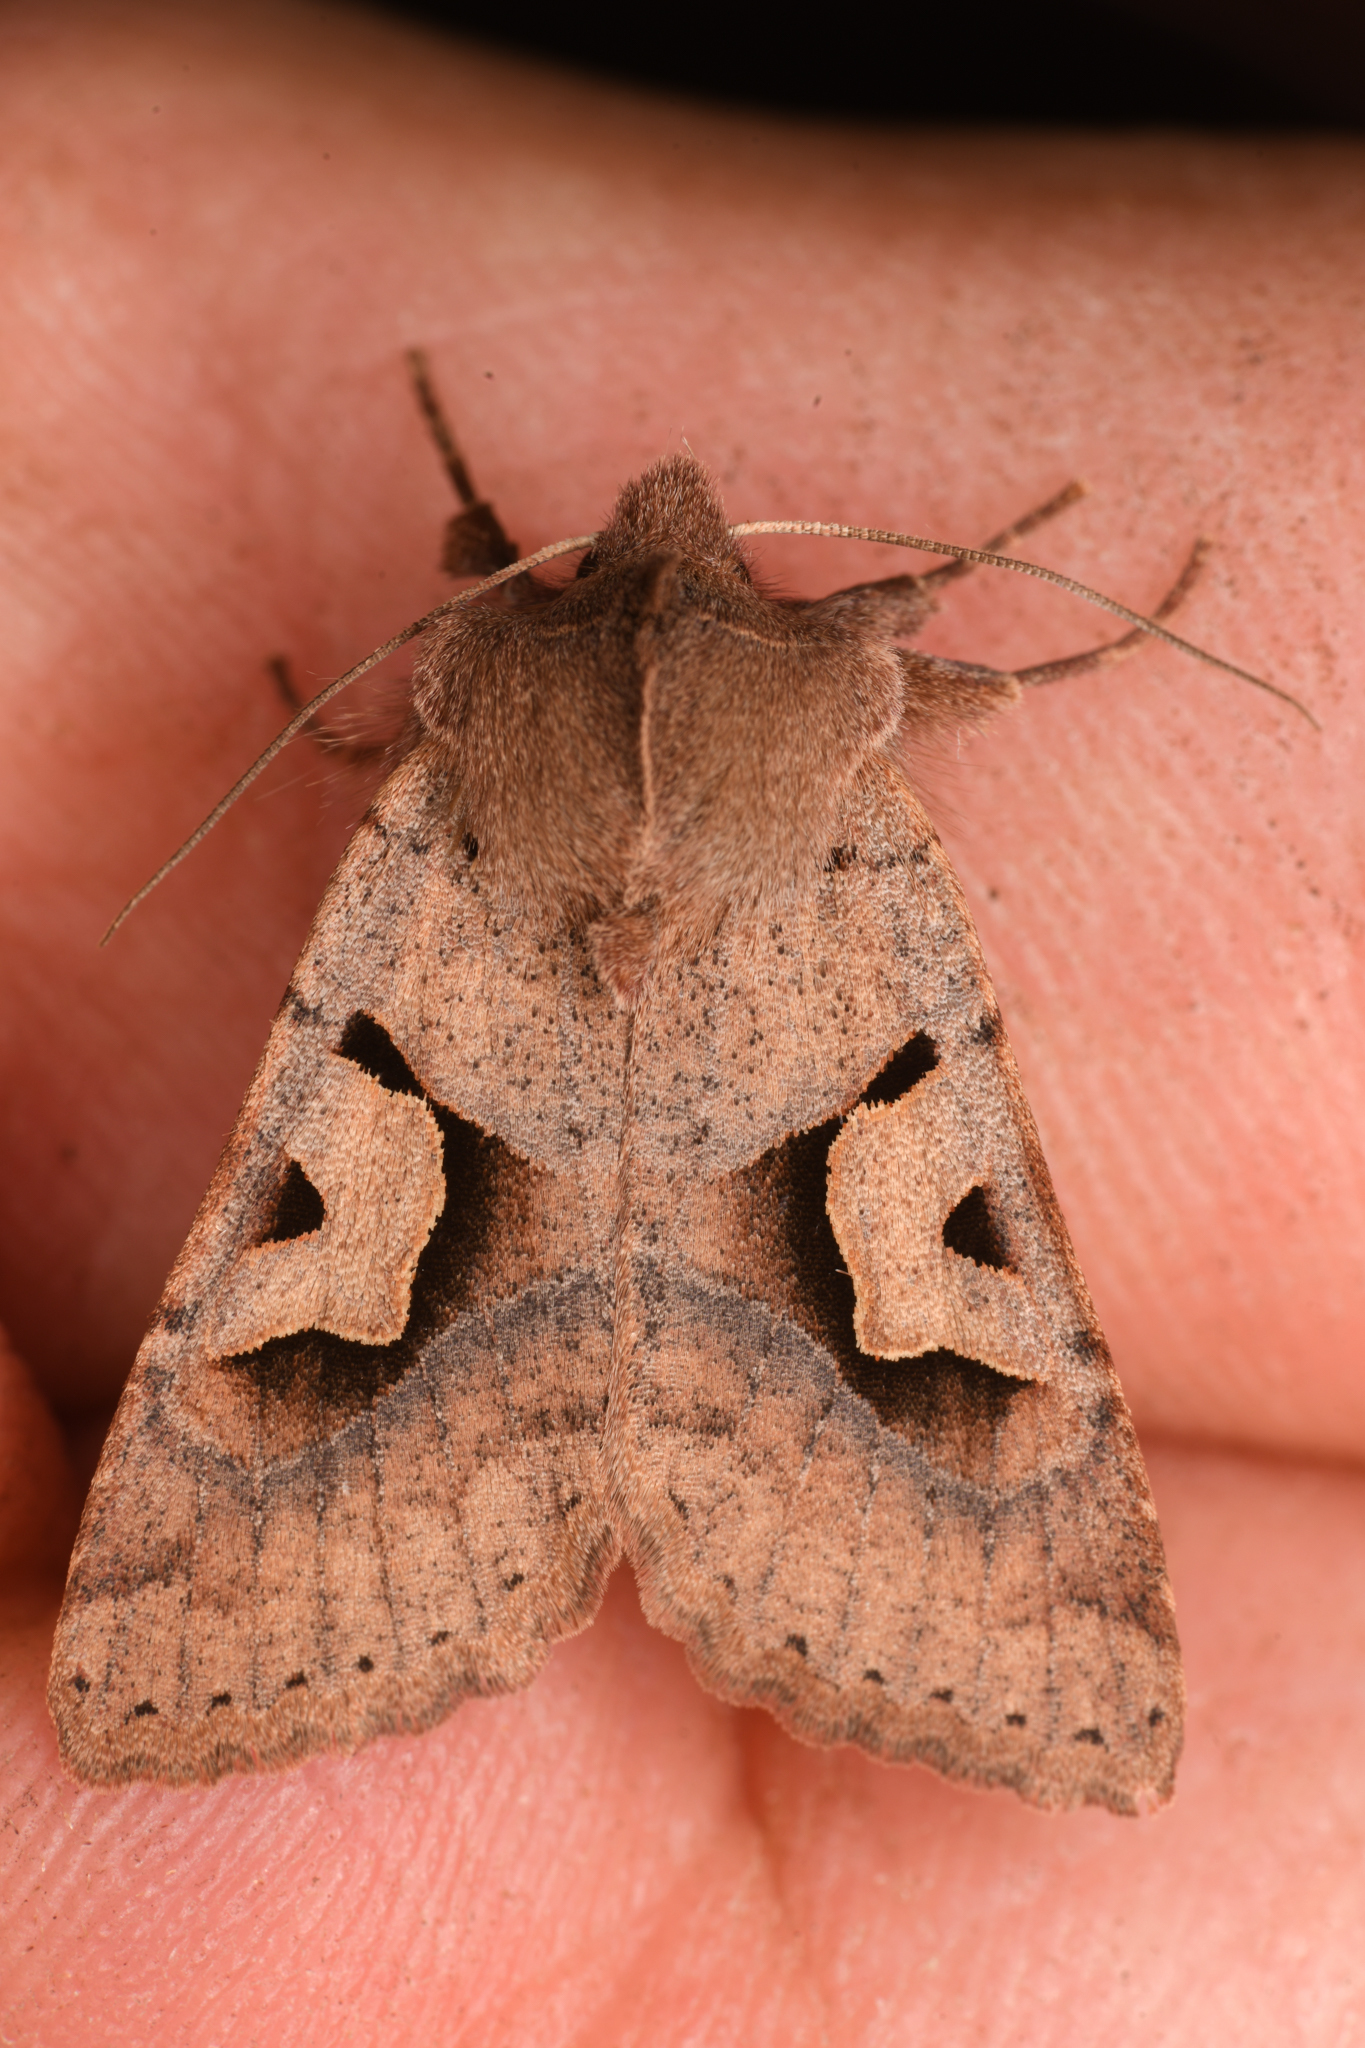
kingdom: Animalia
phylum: Arthropoda
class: Insecta
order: Lepidoptera
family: Noctuidae
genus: Acerra
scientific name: Acerra normalis
